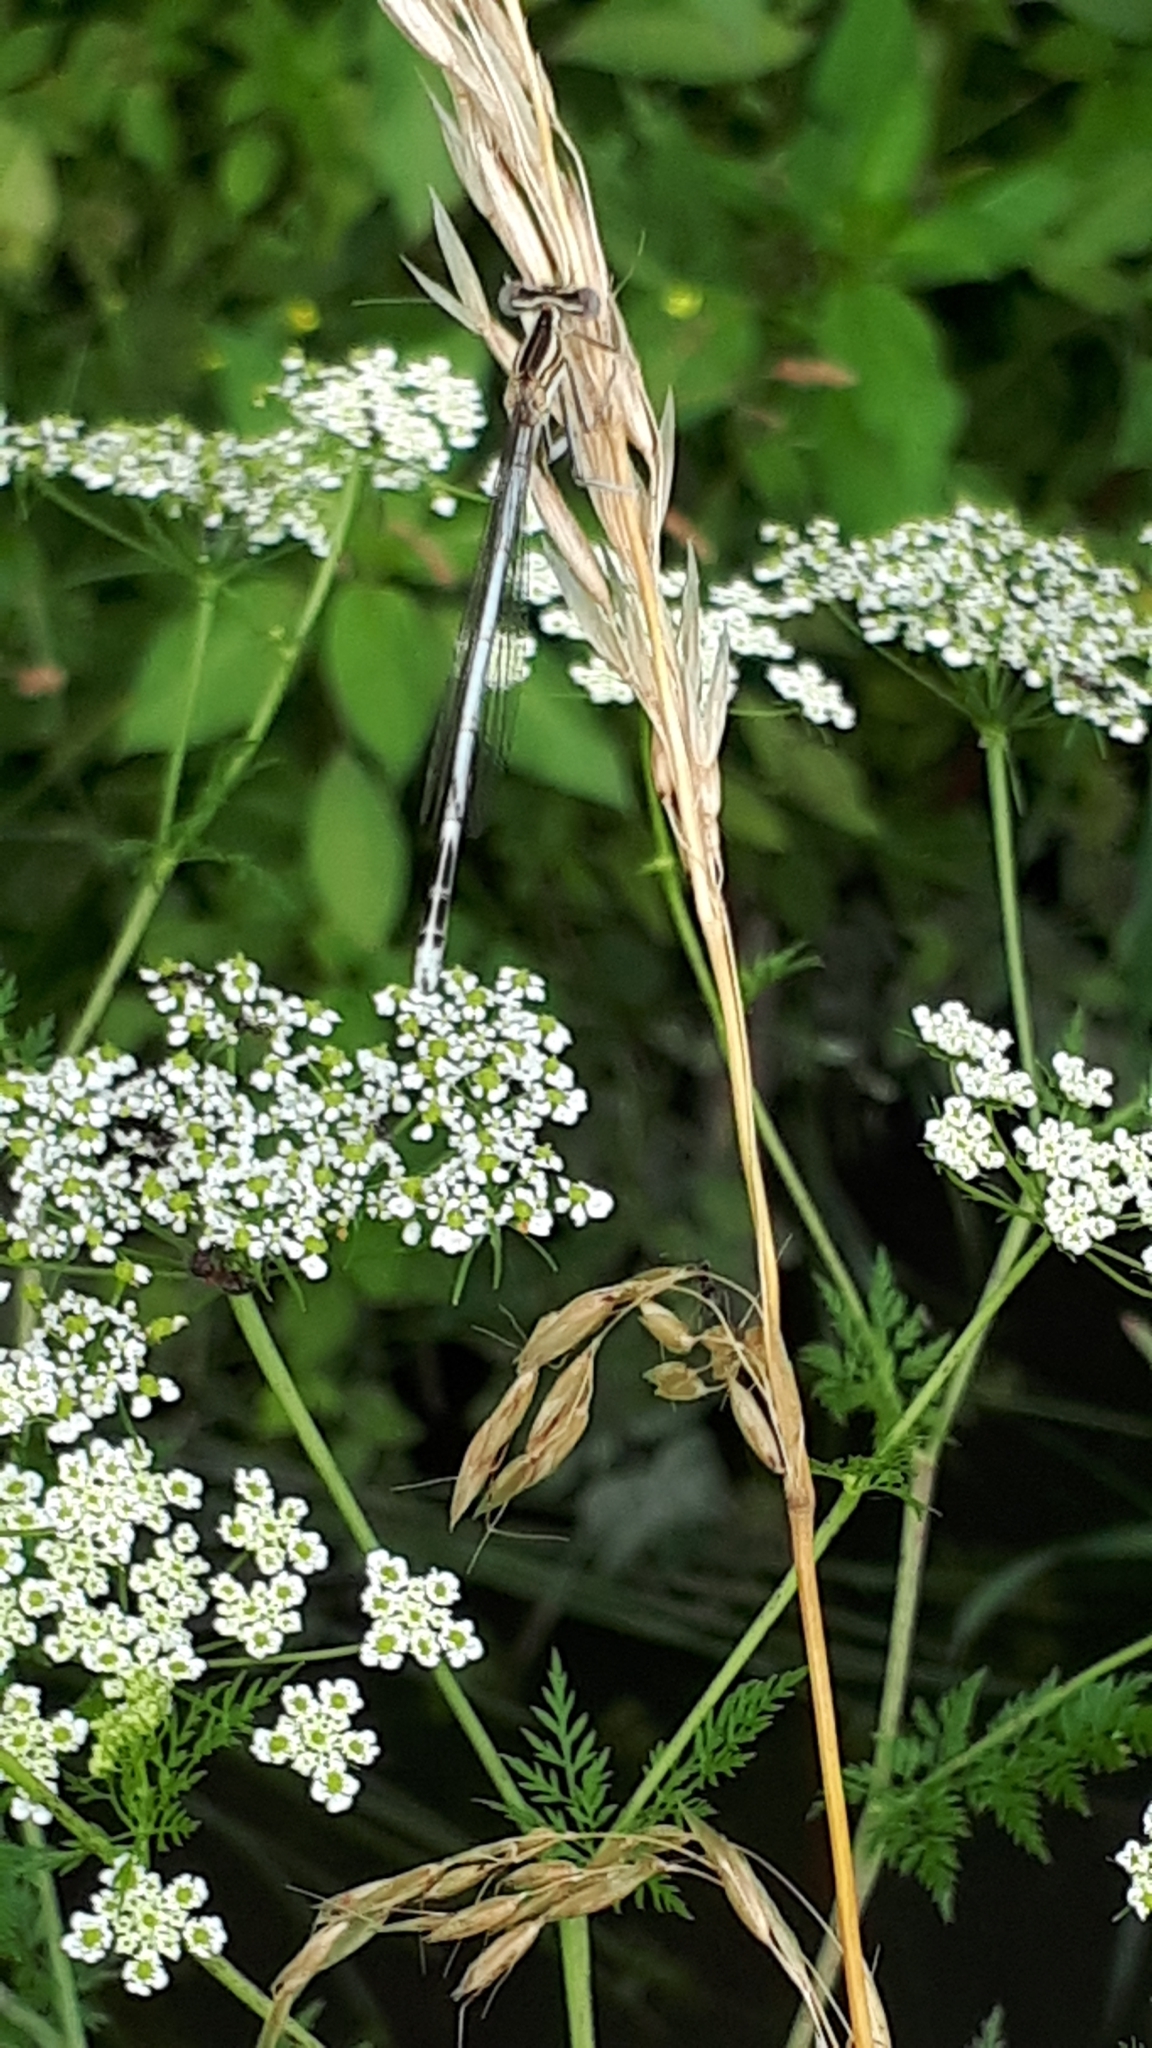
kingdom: Animalia
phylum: Arthropoda
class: Insecta
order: Odonata
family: Platycnemididae
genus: Platycnemis
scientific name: Platycnemis pennipes
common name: White-legged damselfly
